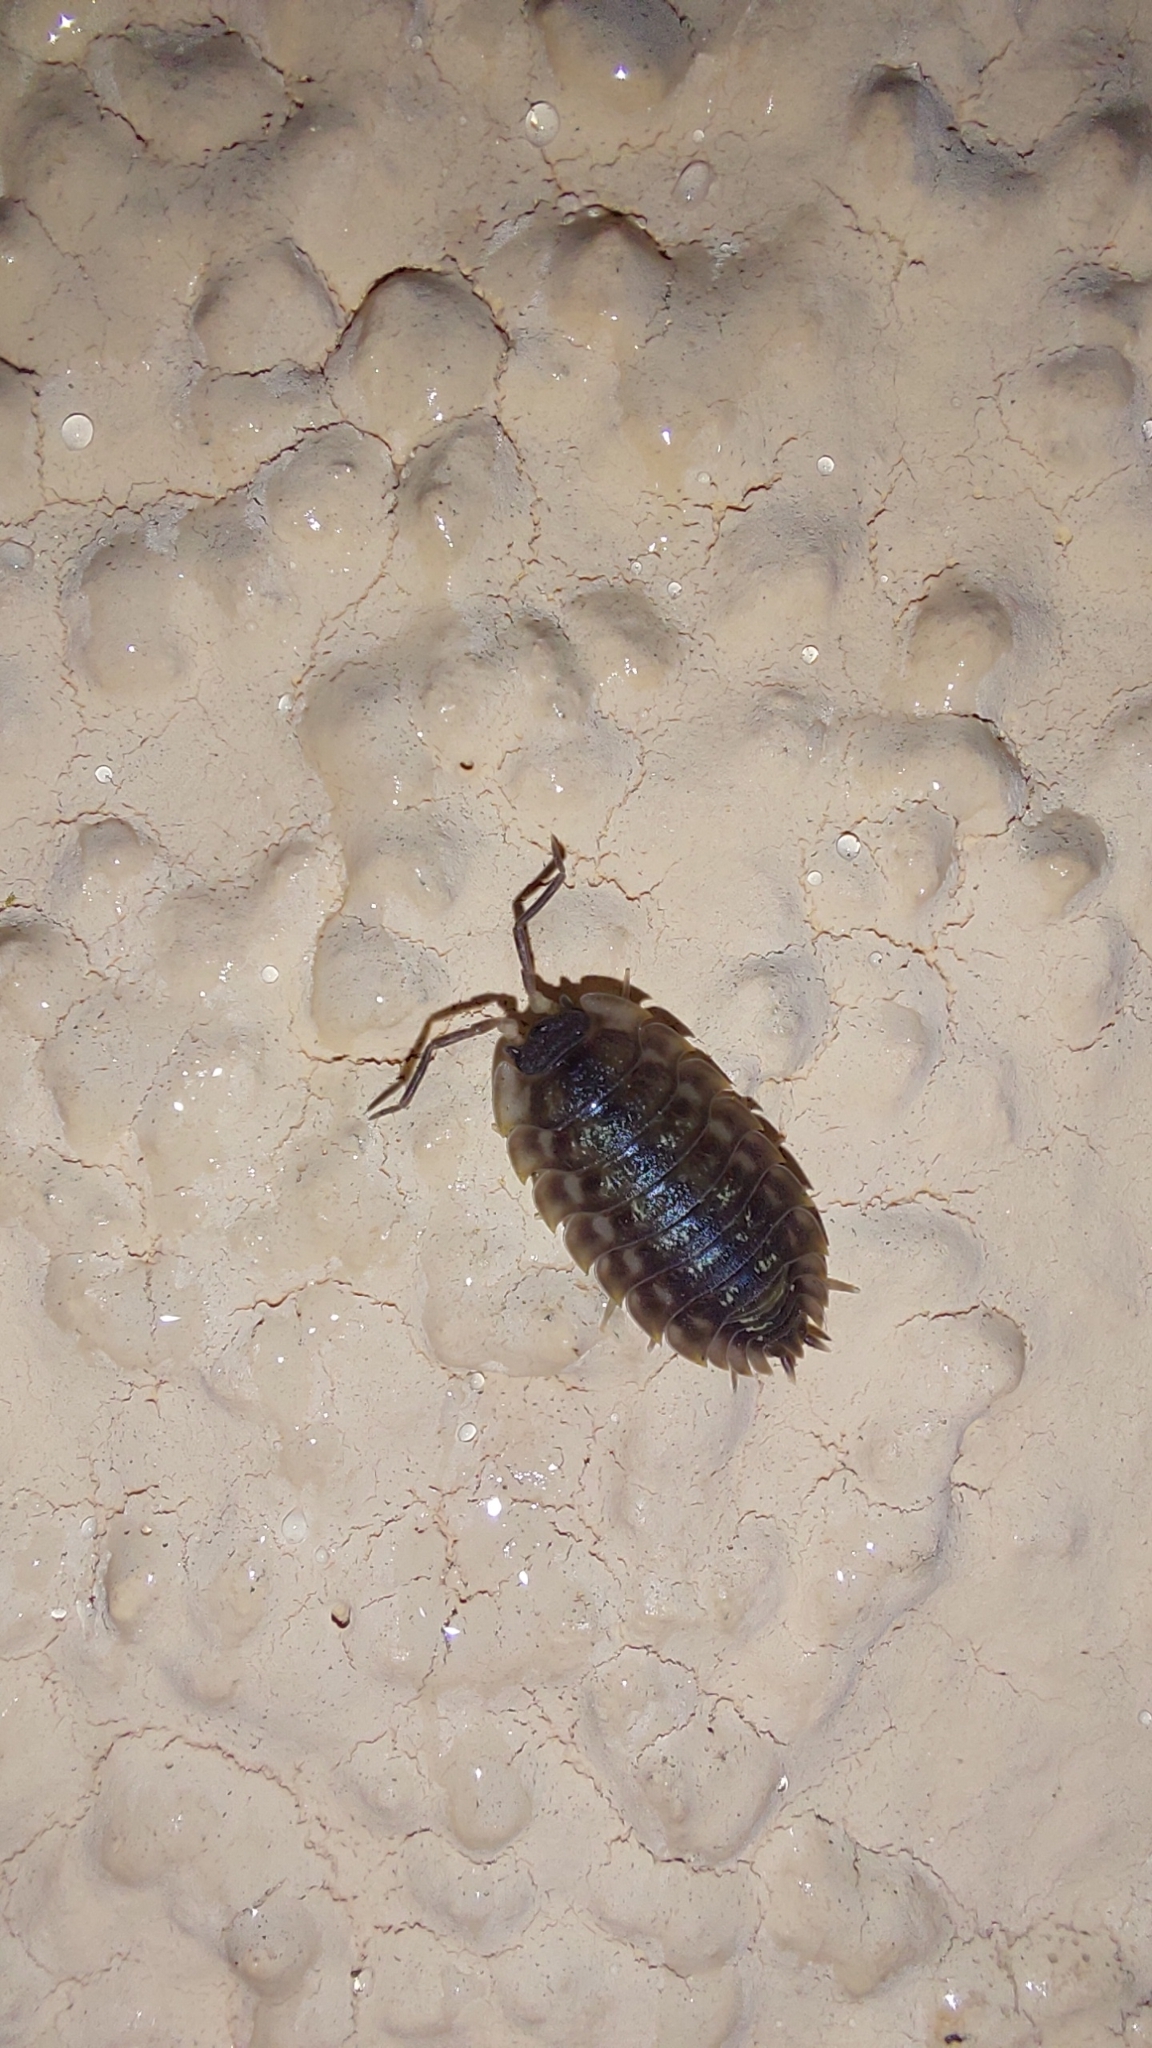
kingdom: Animalia
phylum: Arthropoda
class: Malacostraca
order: Isopoda
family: Oniscidae
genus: Oniscus
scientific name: Oniscus asellus
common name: Common shiny woodlouse
